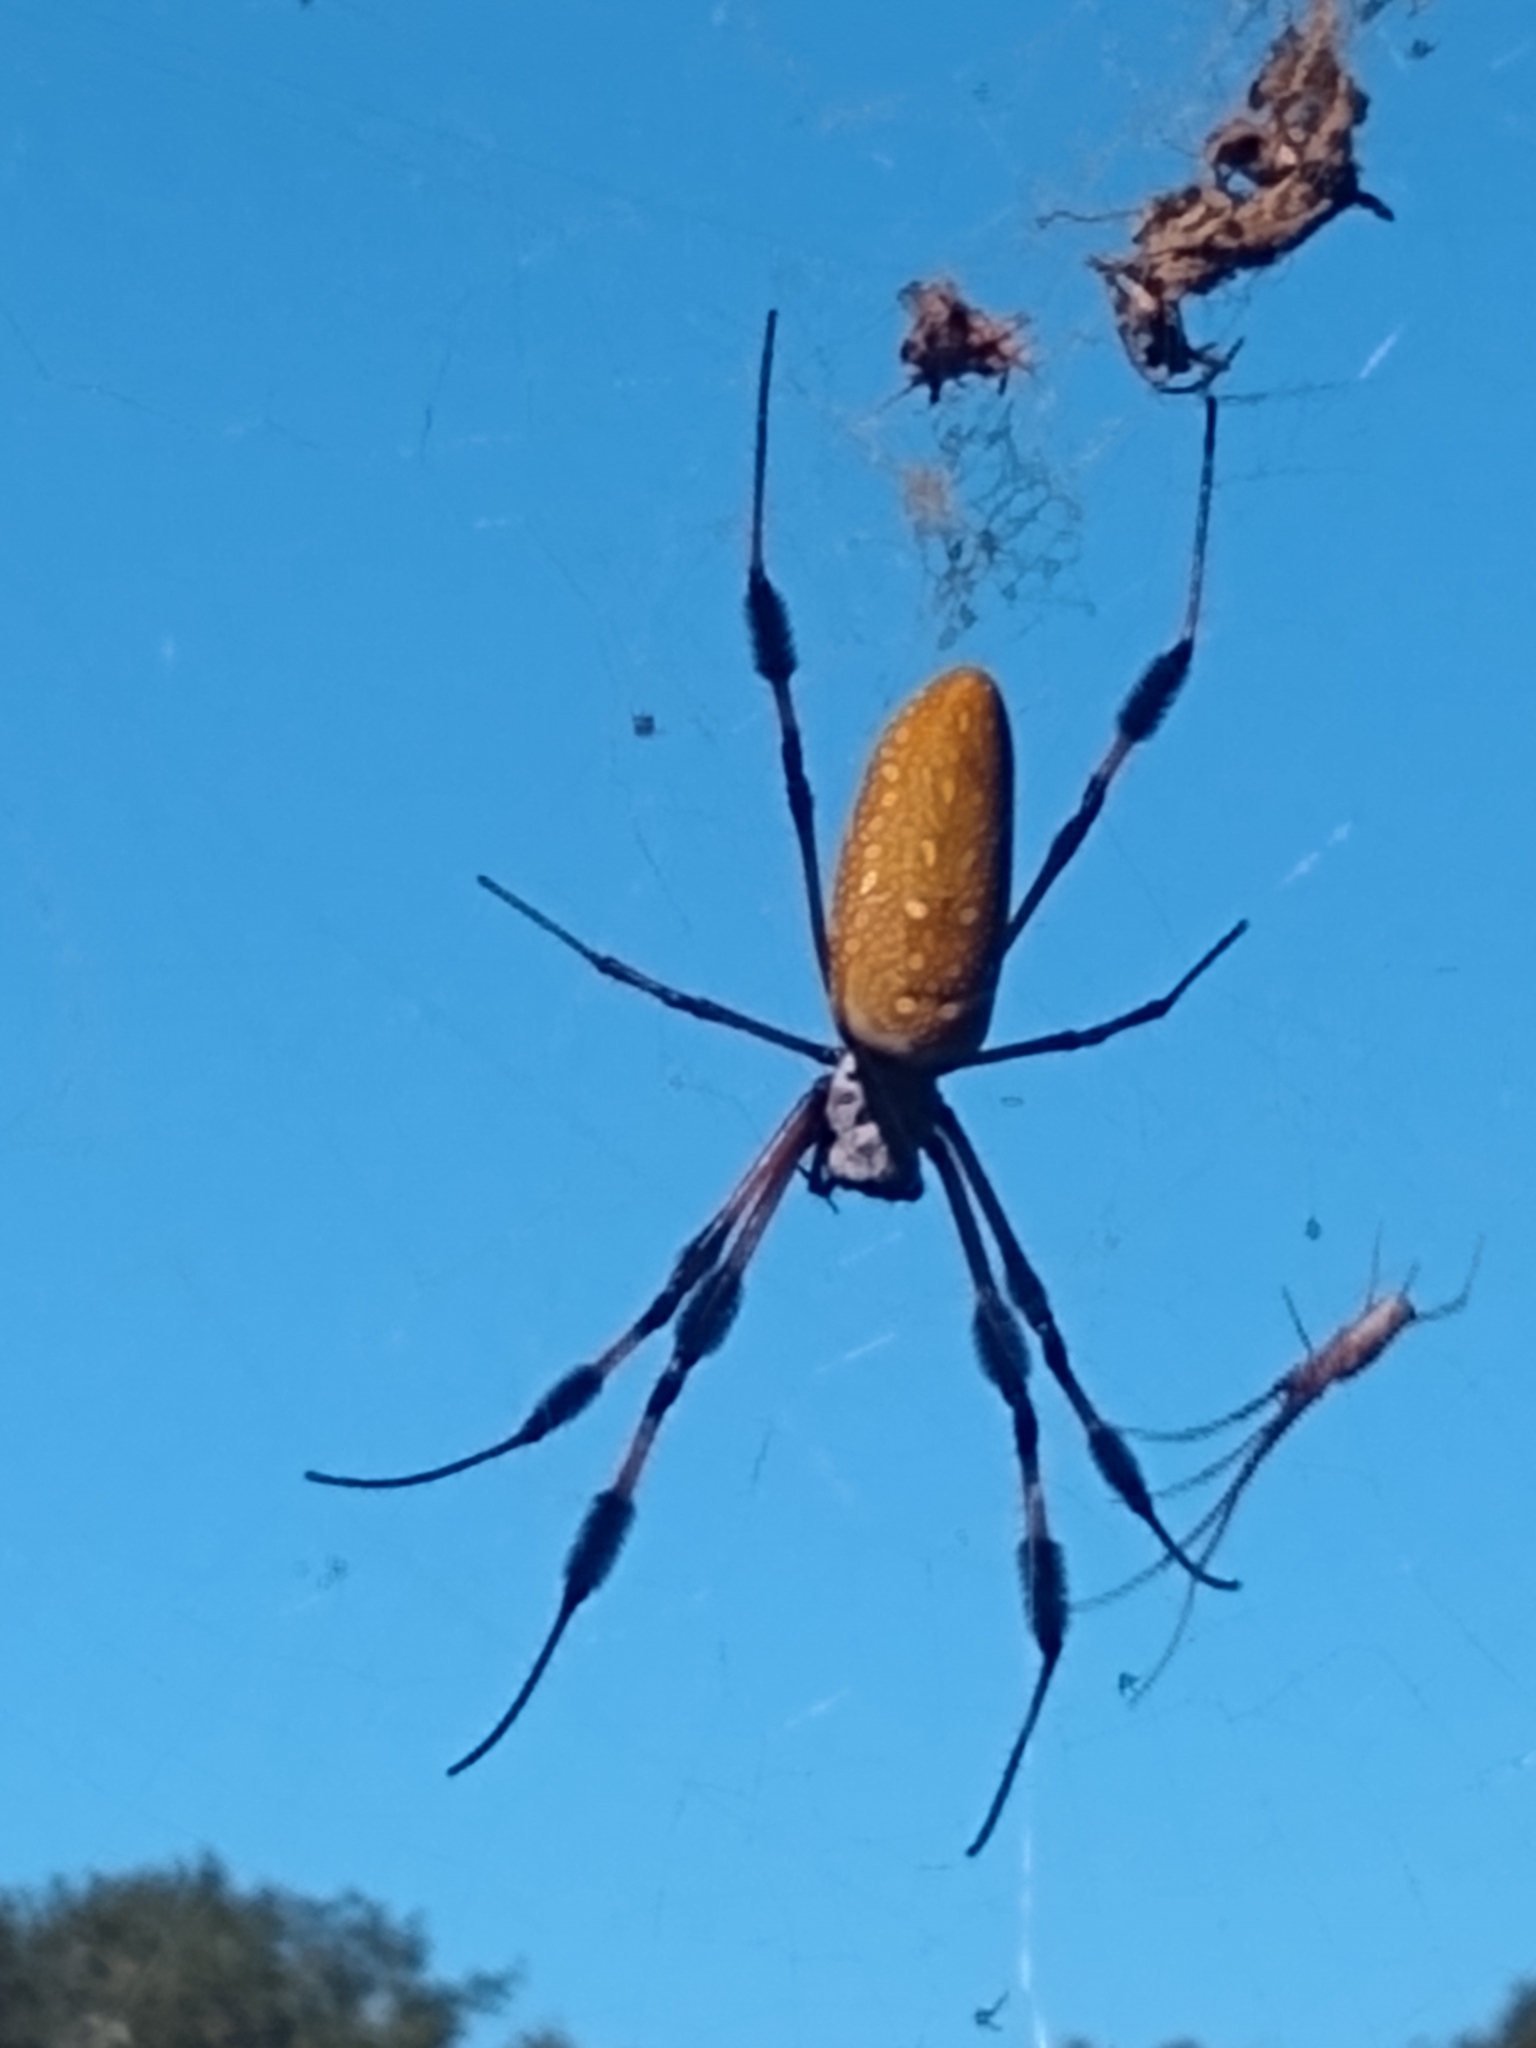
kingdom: Animalia
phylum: Arthropoda
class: Arachnida
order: Araneae
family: Araneidae
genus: Trichonephila
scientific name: Trichonephila clavipes
